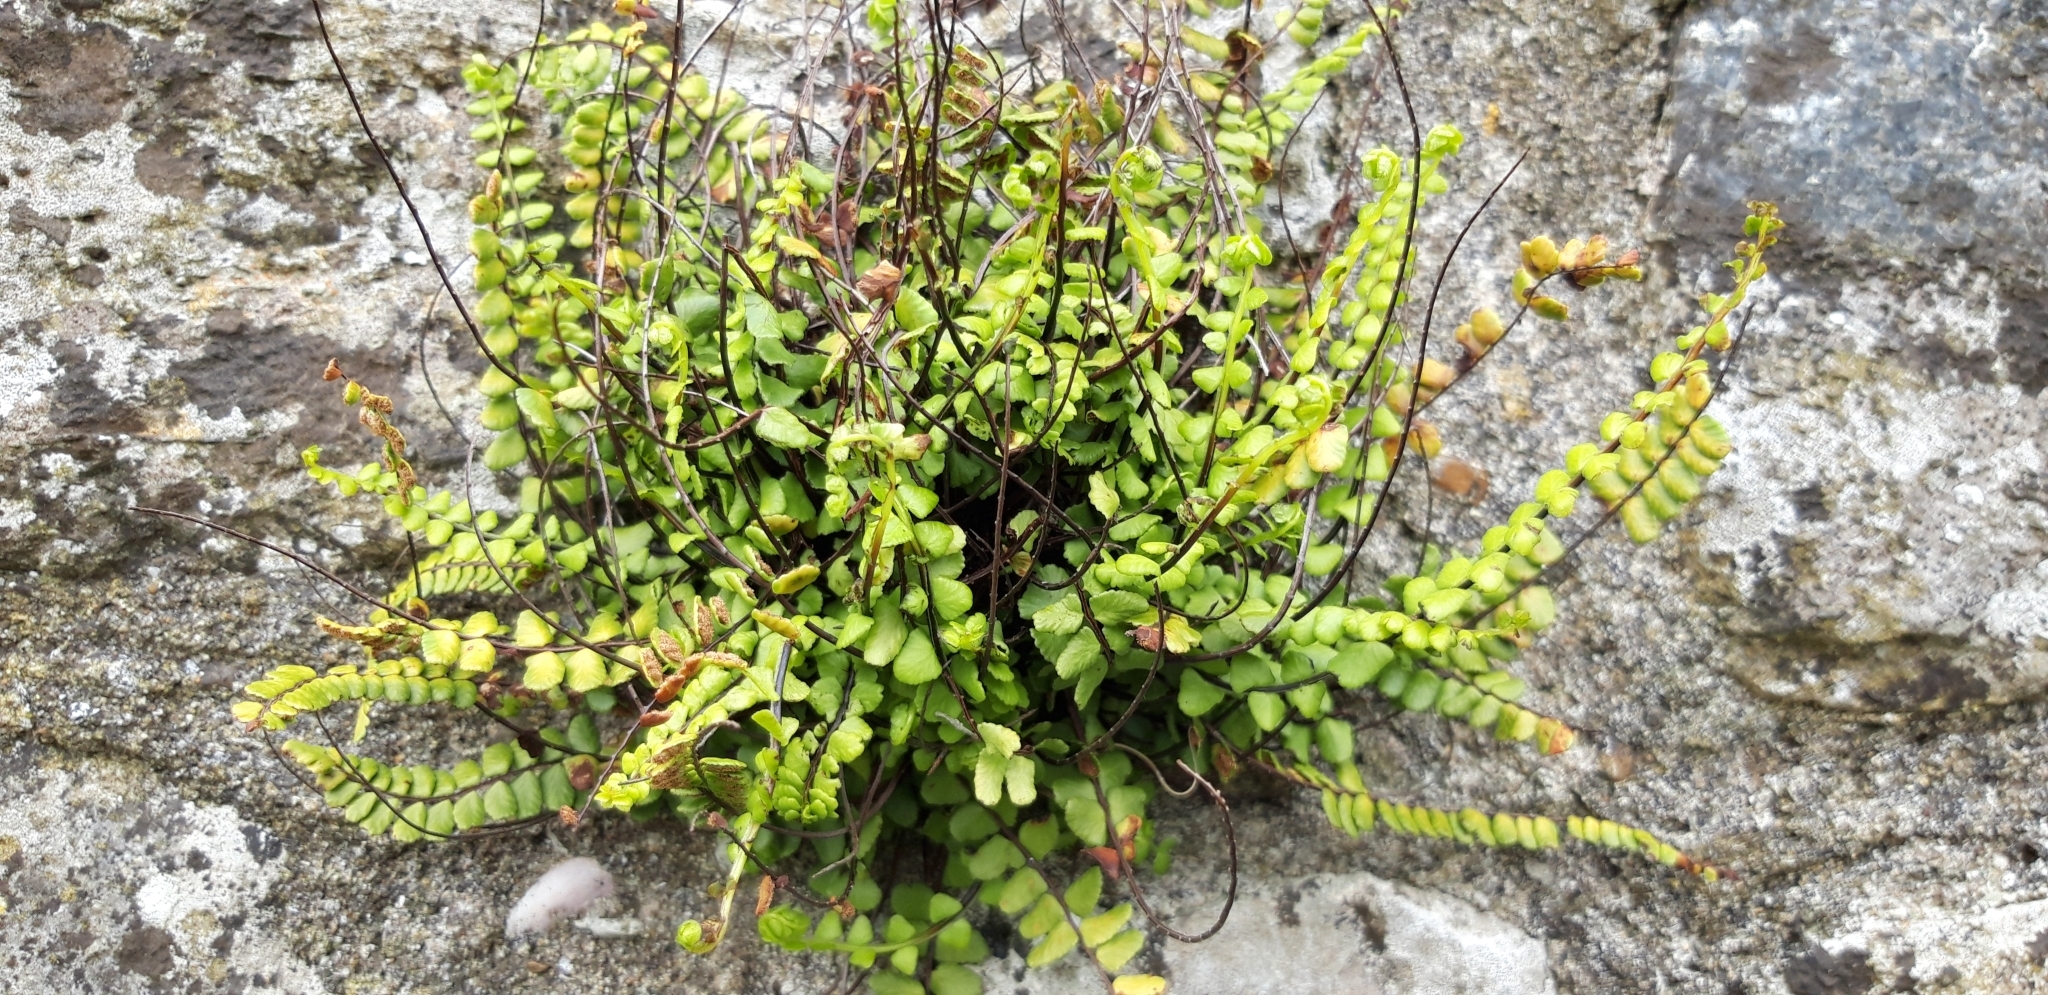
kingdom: Plantae
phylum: Tracheophyta
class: Polypodiopsida
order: Polypodiales
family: Aspleniaceae
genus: Asplenium
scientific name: Asplenium trichomanes
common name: Maidenhair spleenwort
